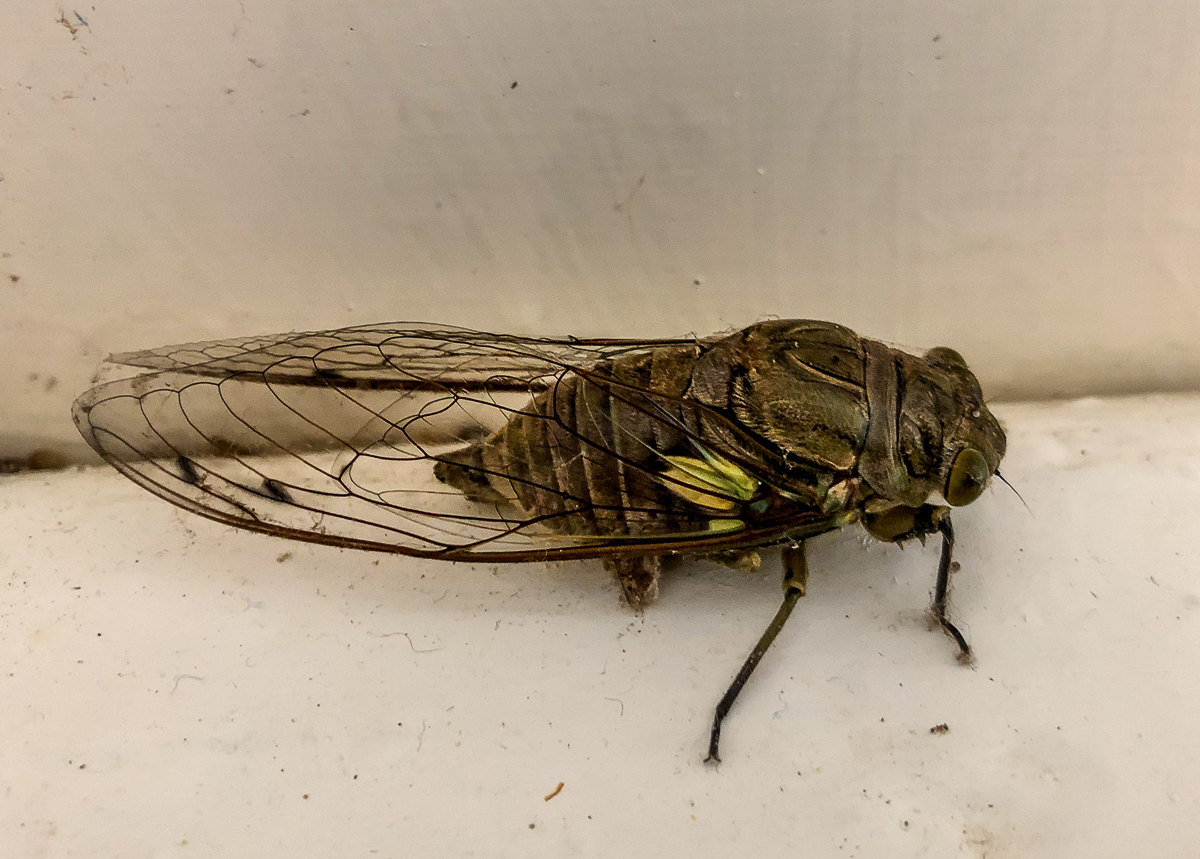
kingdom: Animalia
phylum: Arthropoda
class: Insecta
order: Hemiptera
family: Cicadidae
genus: Quesada
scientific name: Quesada gigas
